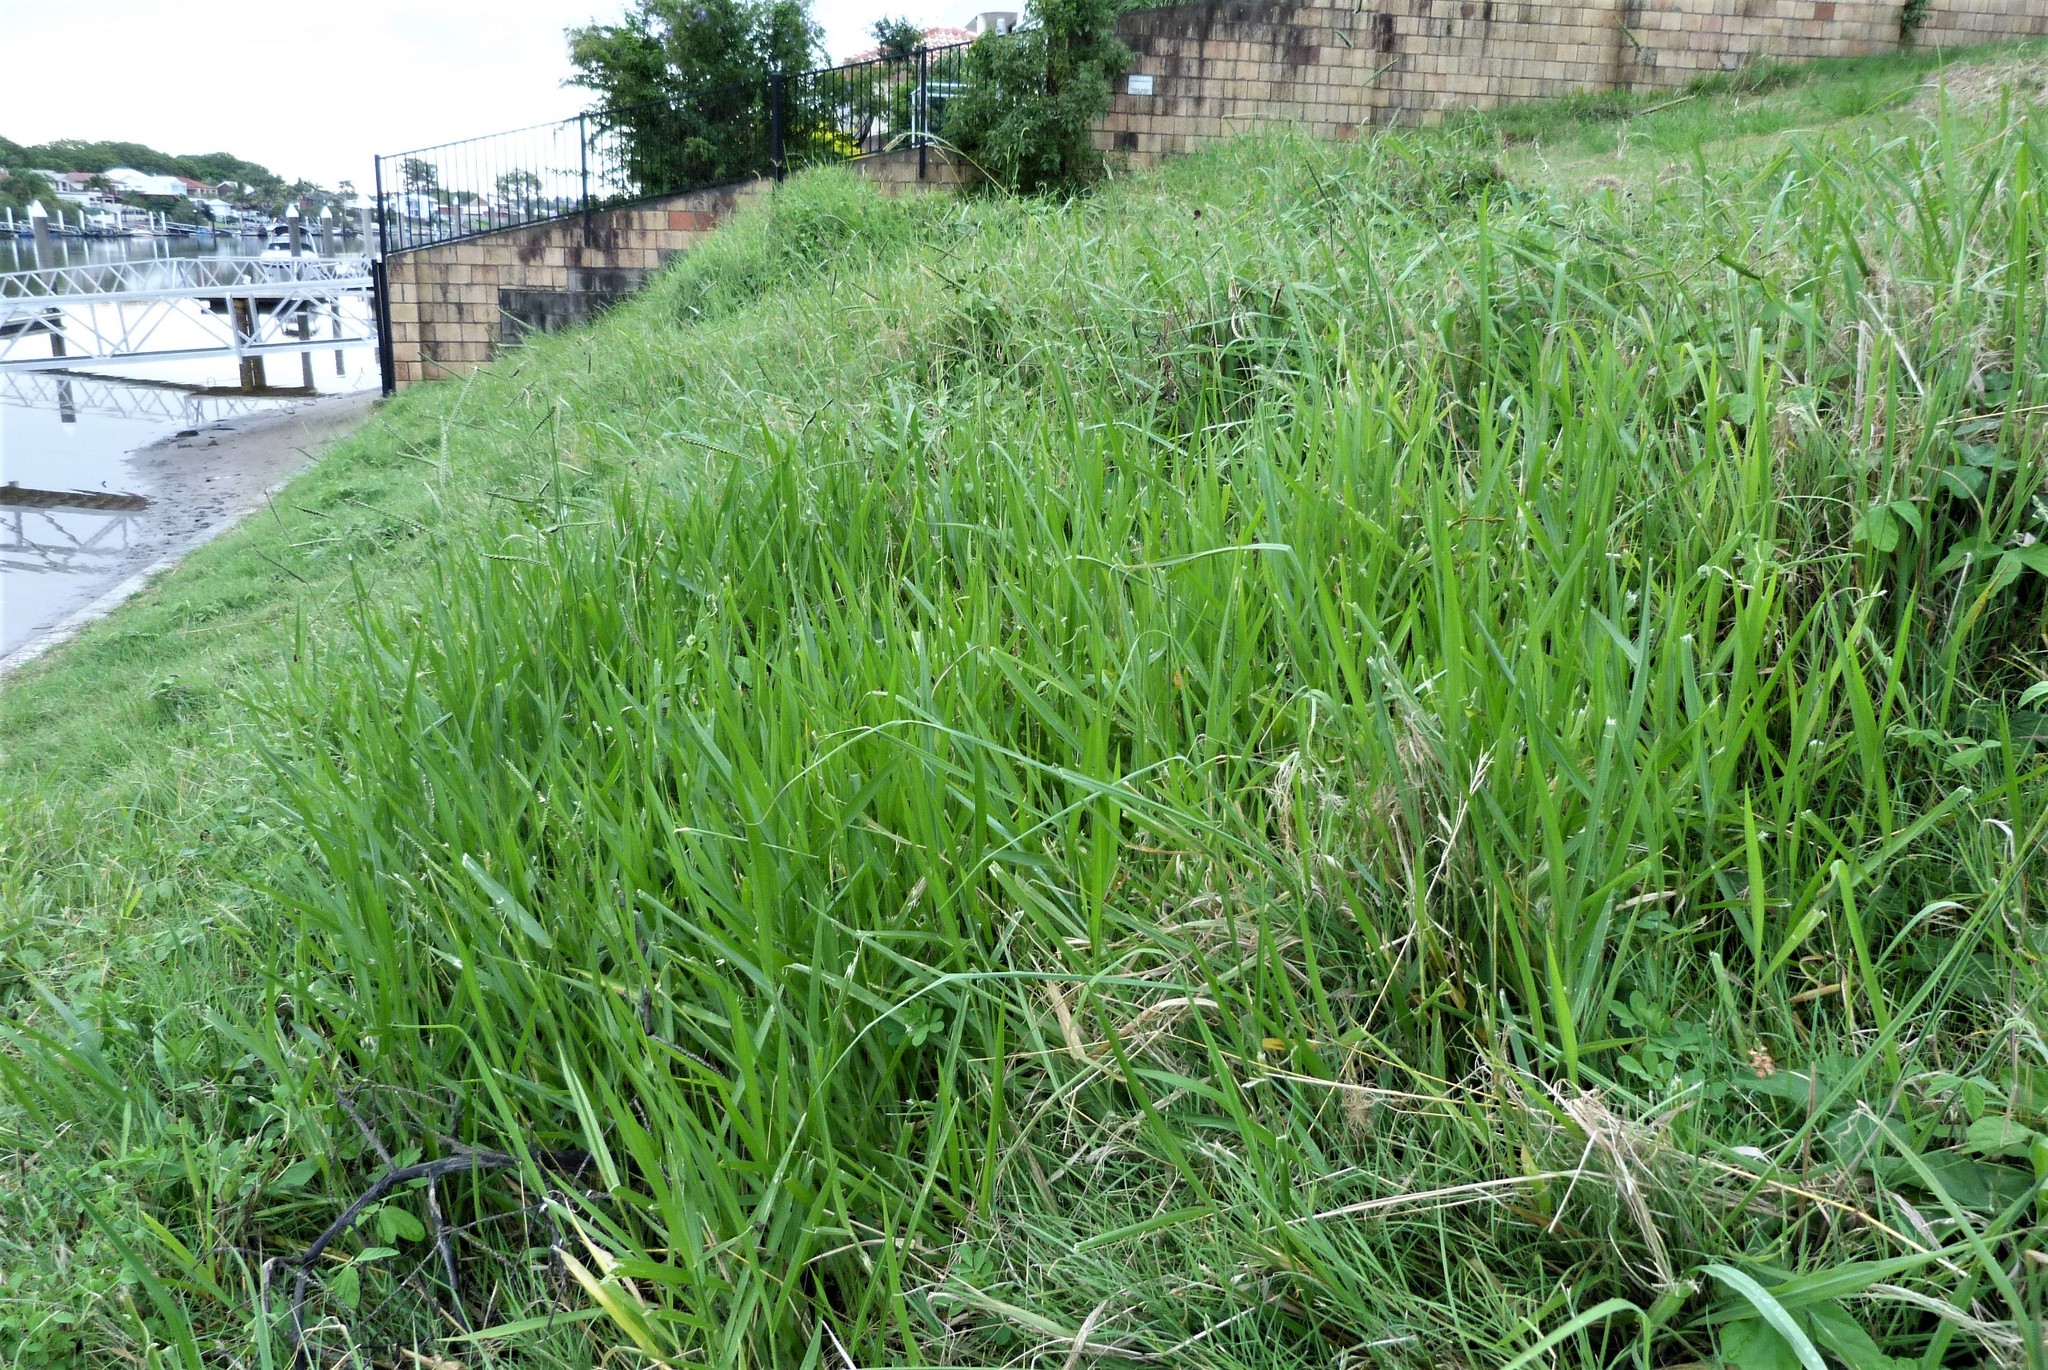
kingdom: Plantae
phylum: Tracheophyta
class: Liliopsida
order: Poales
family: Poaceae
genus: Paspalum
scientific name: Paspalum dilatatum
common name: Dallisgrass
